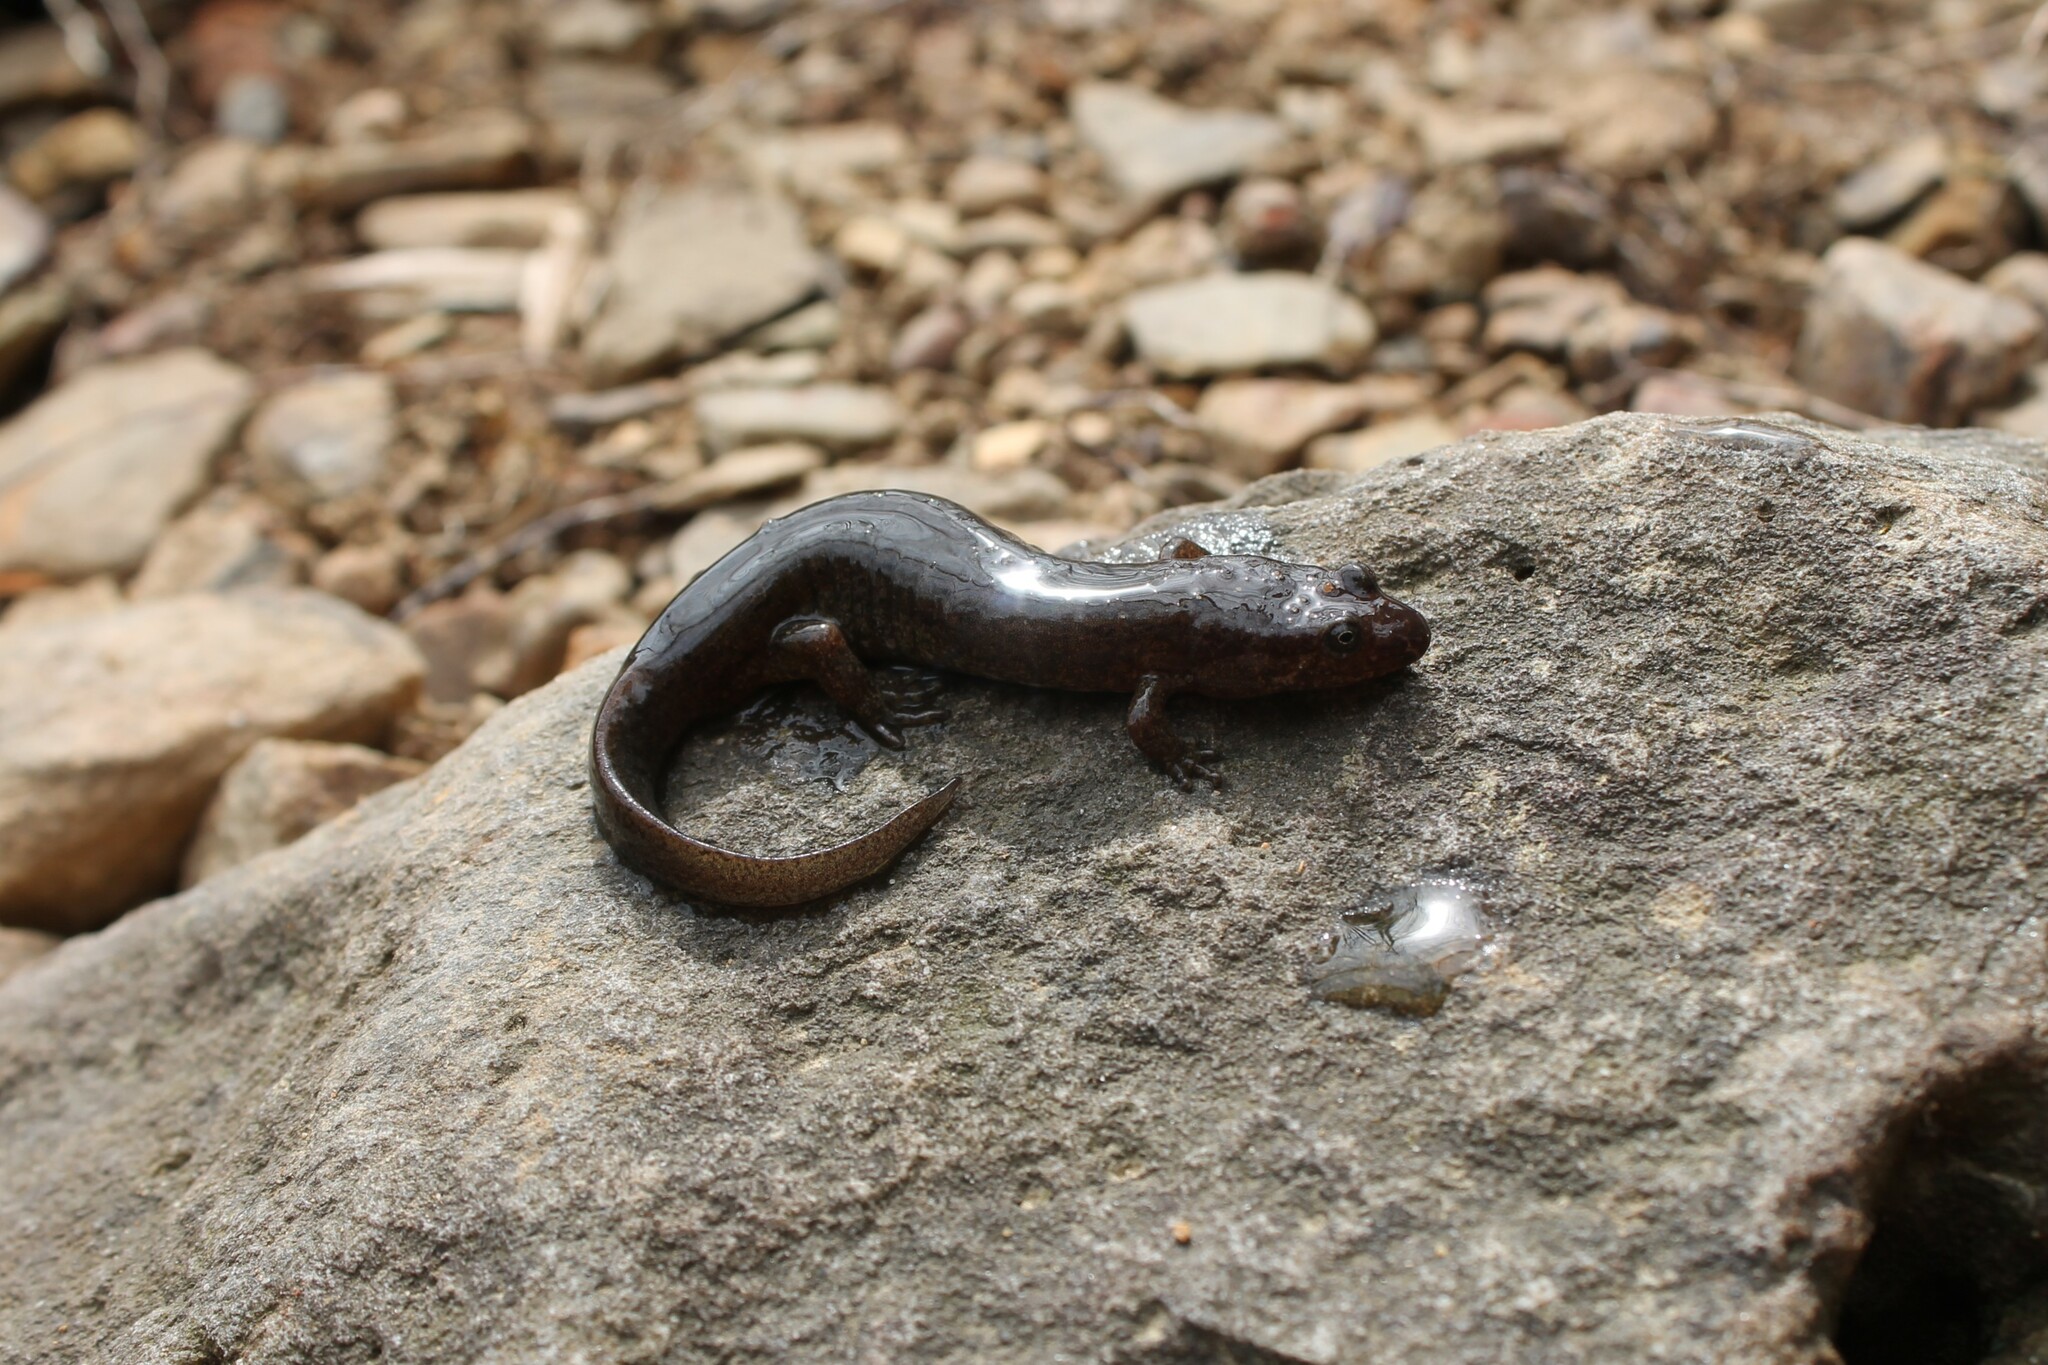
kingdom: Animalia
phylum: Chordata
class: Amphibia
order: Caudata
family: Plethodontidae
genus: Desmognathus
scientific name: Desmognathus
